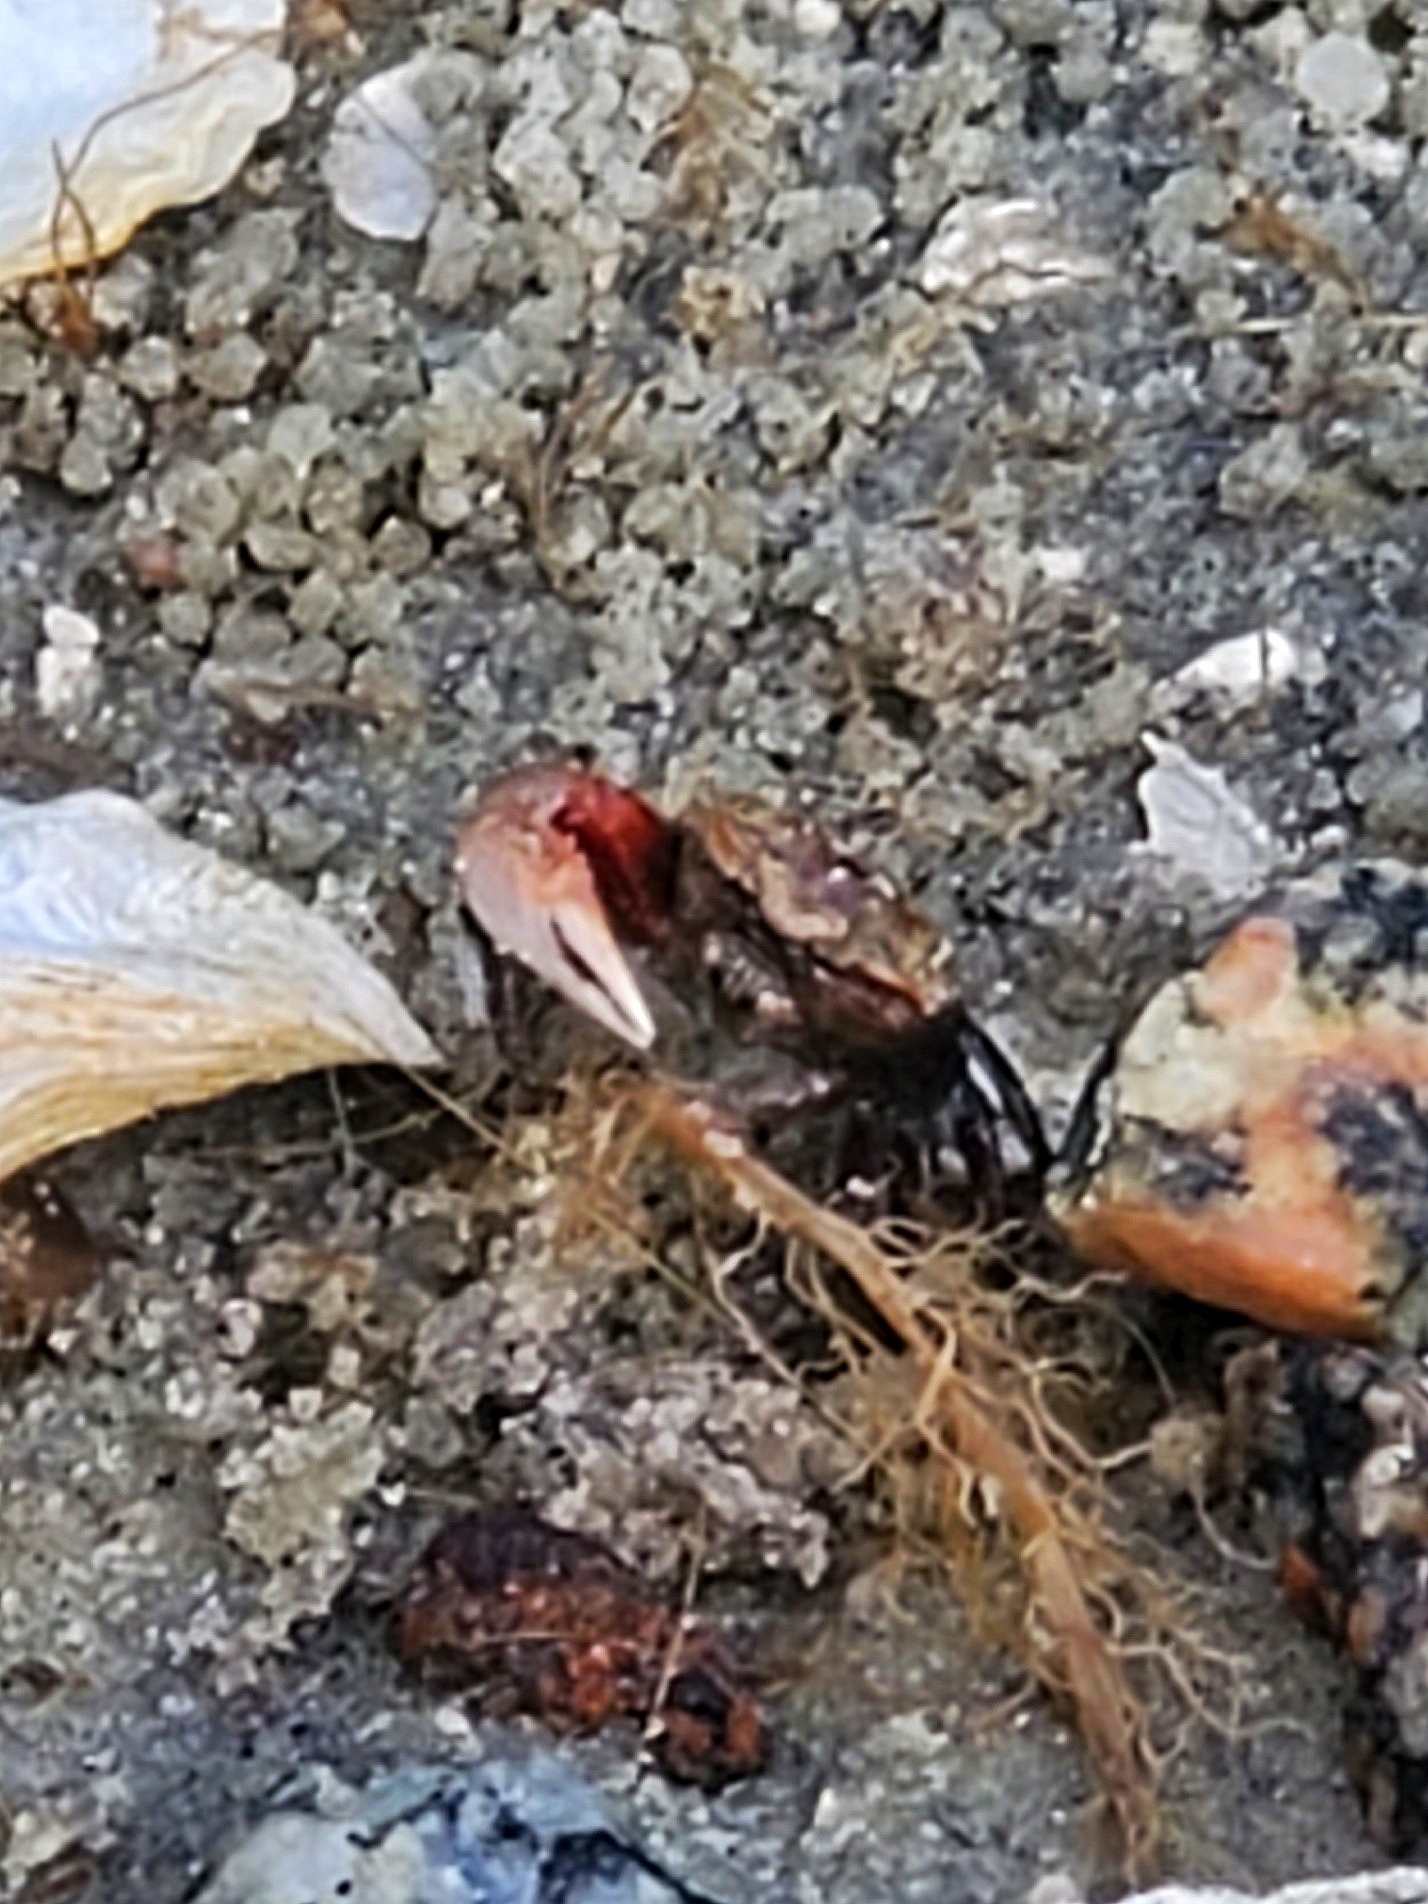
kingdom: Animalia
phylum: Arthropoda
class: Malacostraca
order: Decapoda
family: Ocypodidae
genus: Leptuca
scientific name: Leptuca pugilator
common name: Atlantic sand fiddler crab
